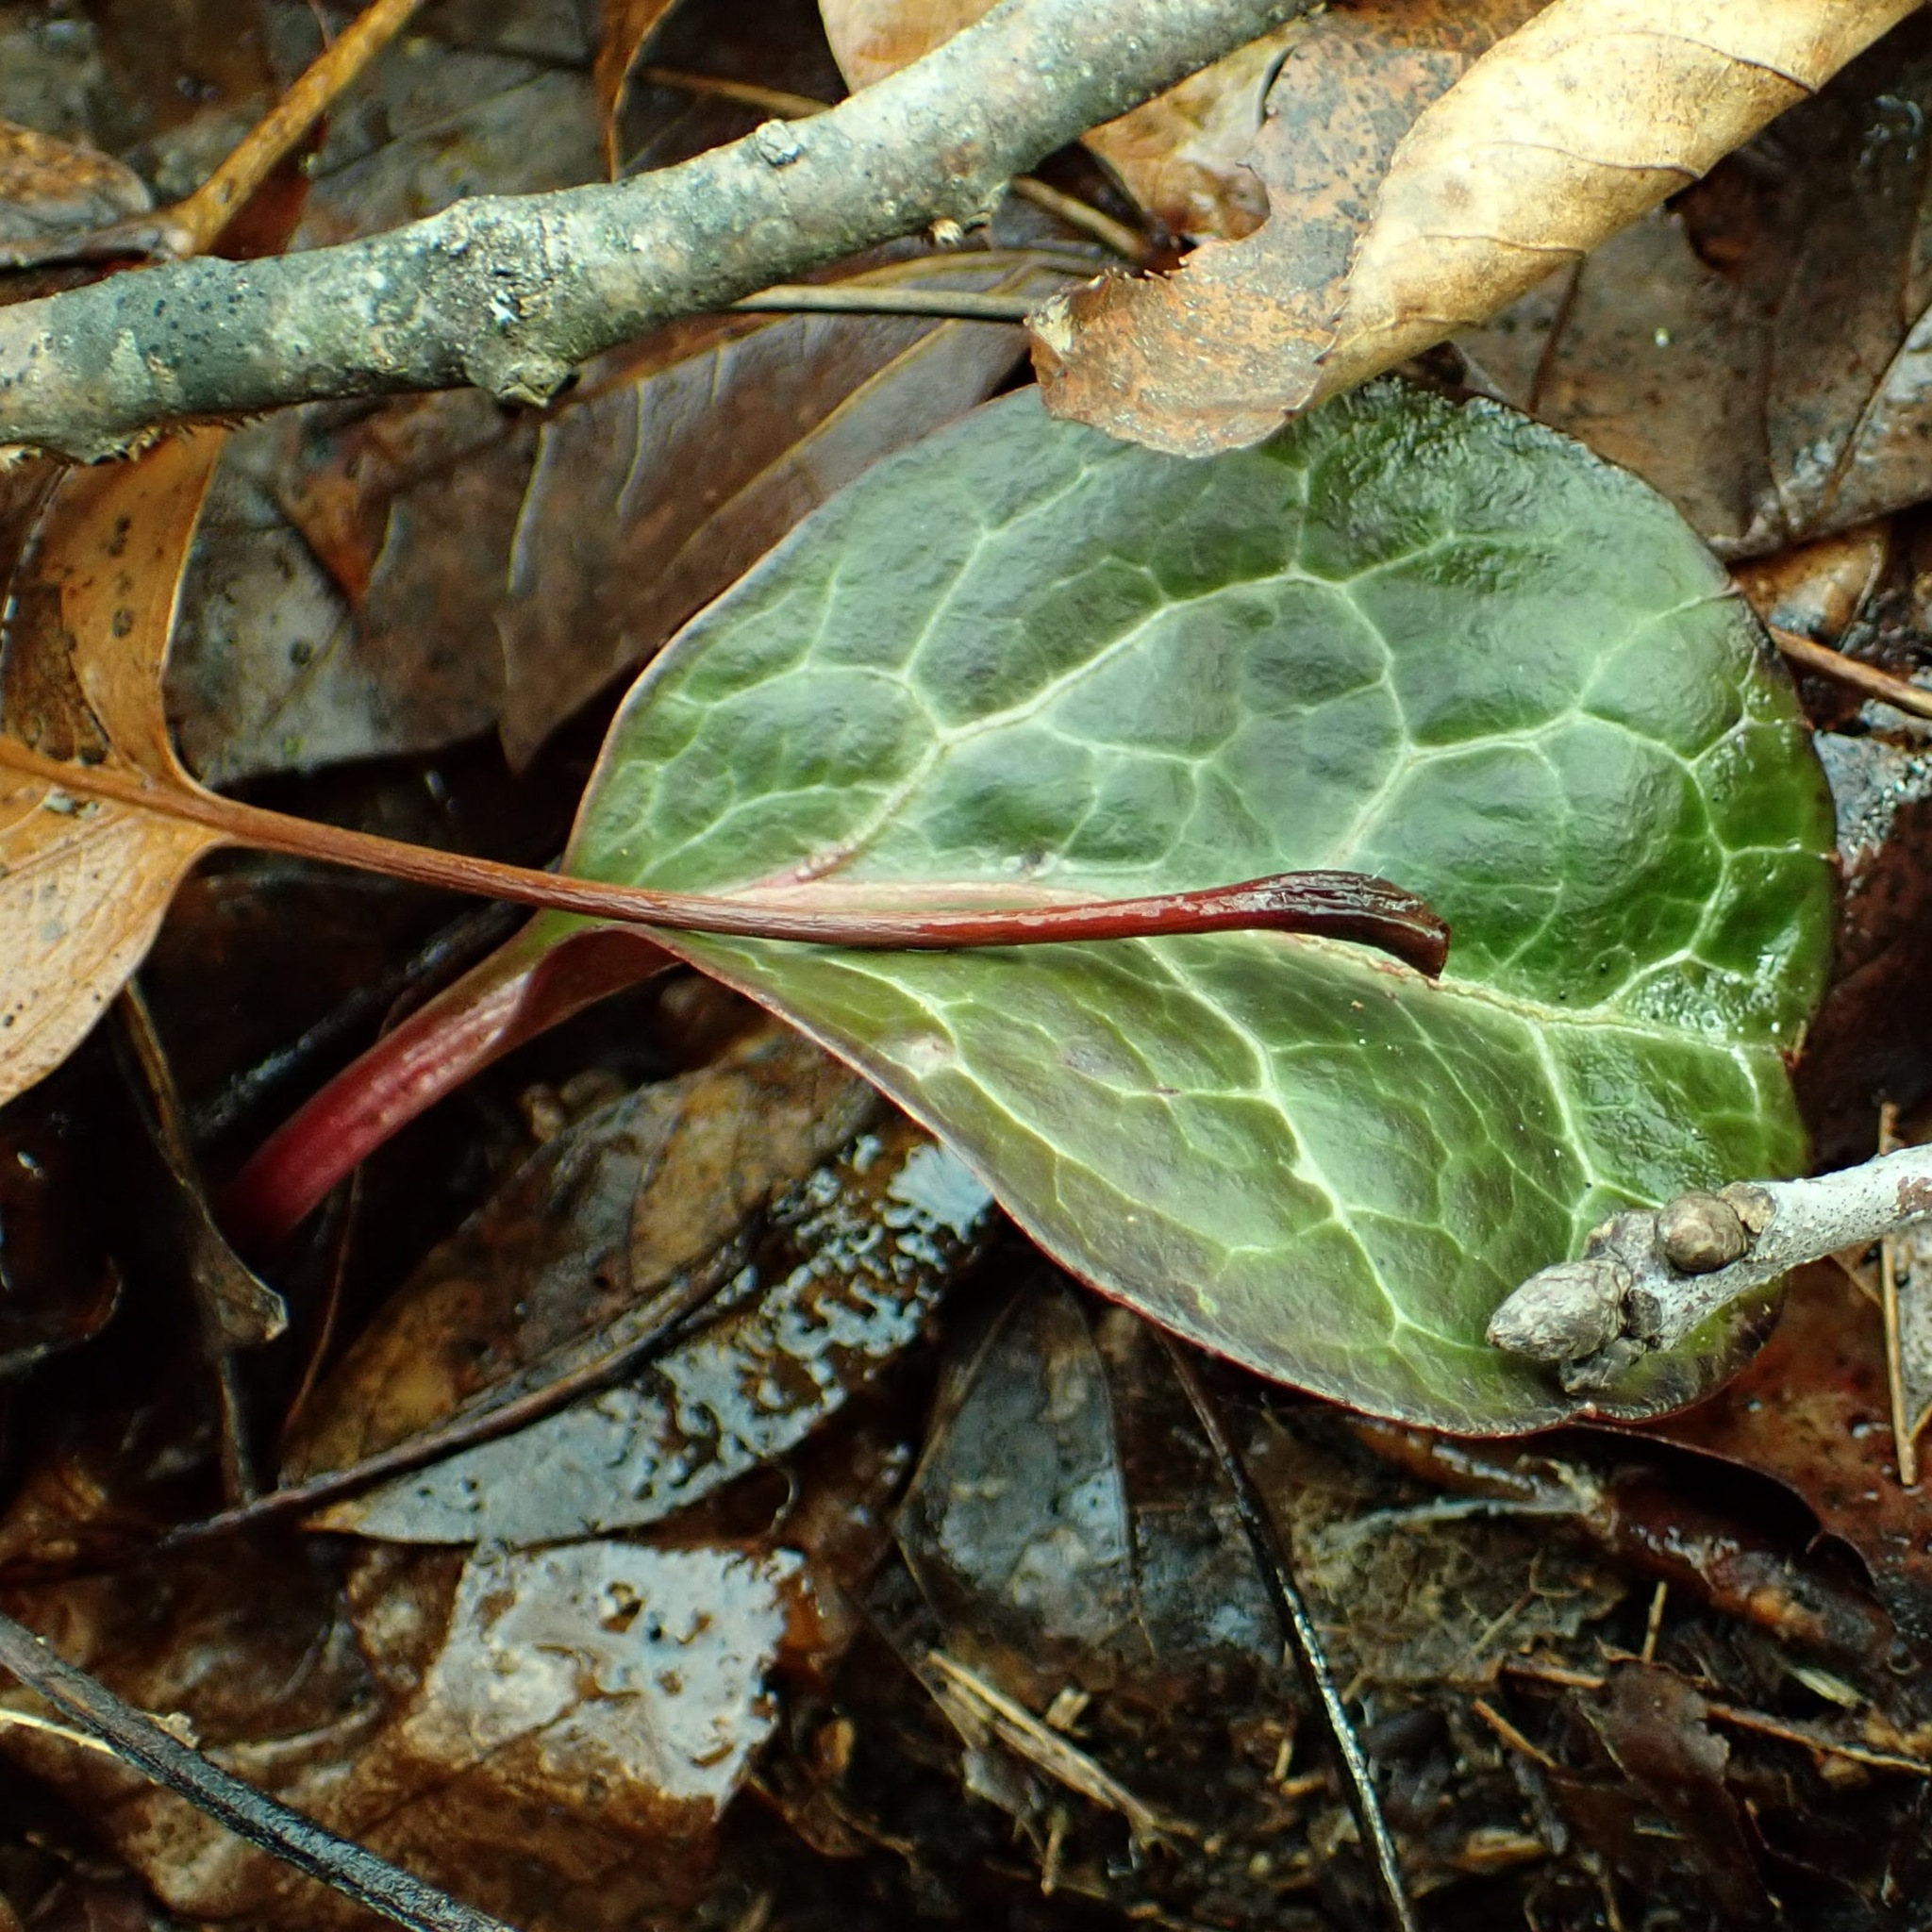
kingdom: Plantae
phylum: Tracheophyta
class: Magnoliopsida
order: Ericales
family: Ericaceae
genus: Pyrola
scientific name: Pyrola americana
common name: American wintergreen
